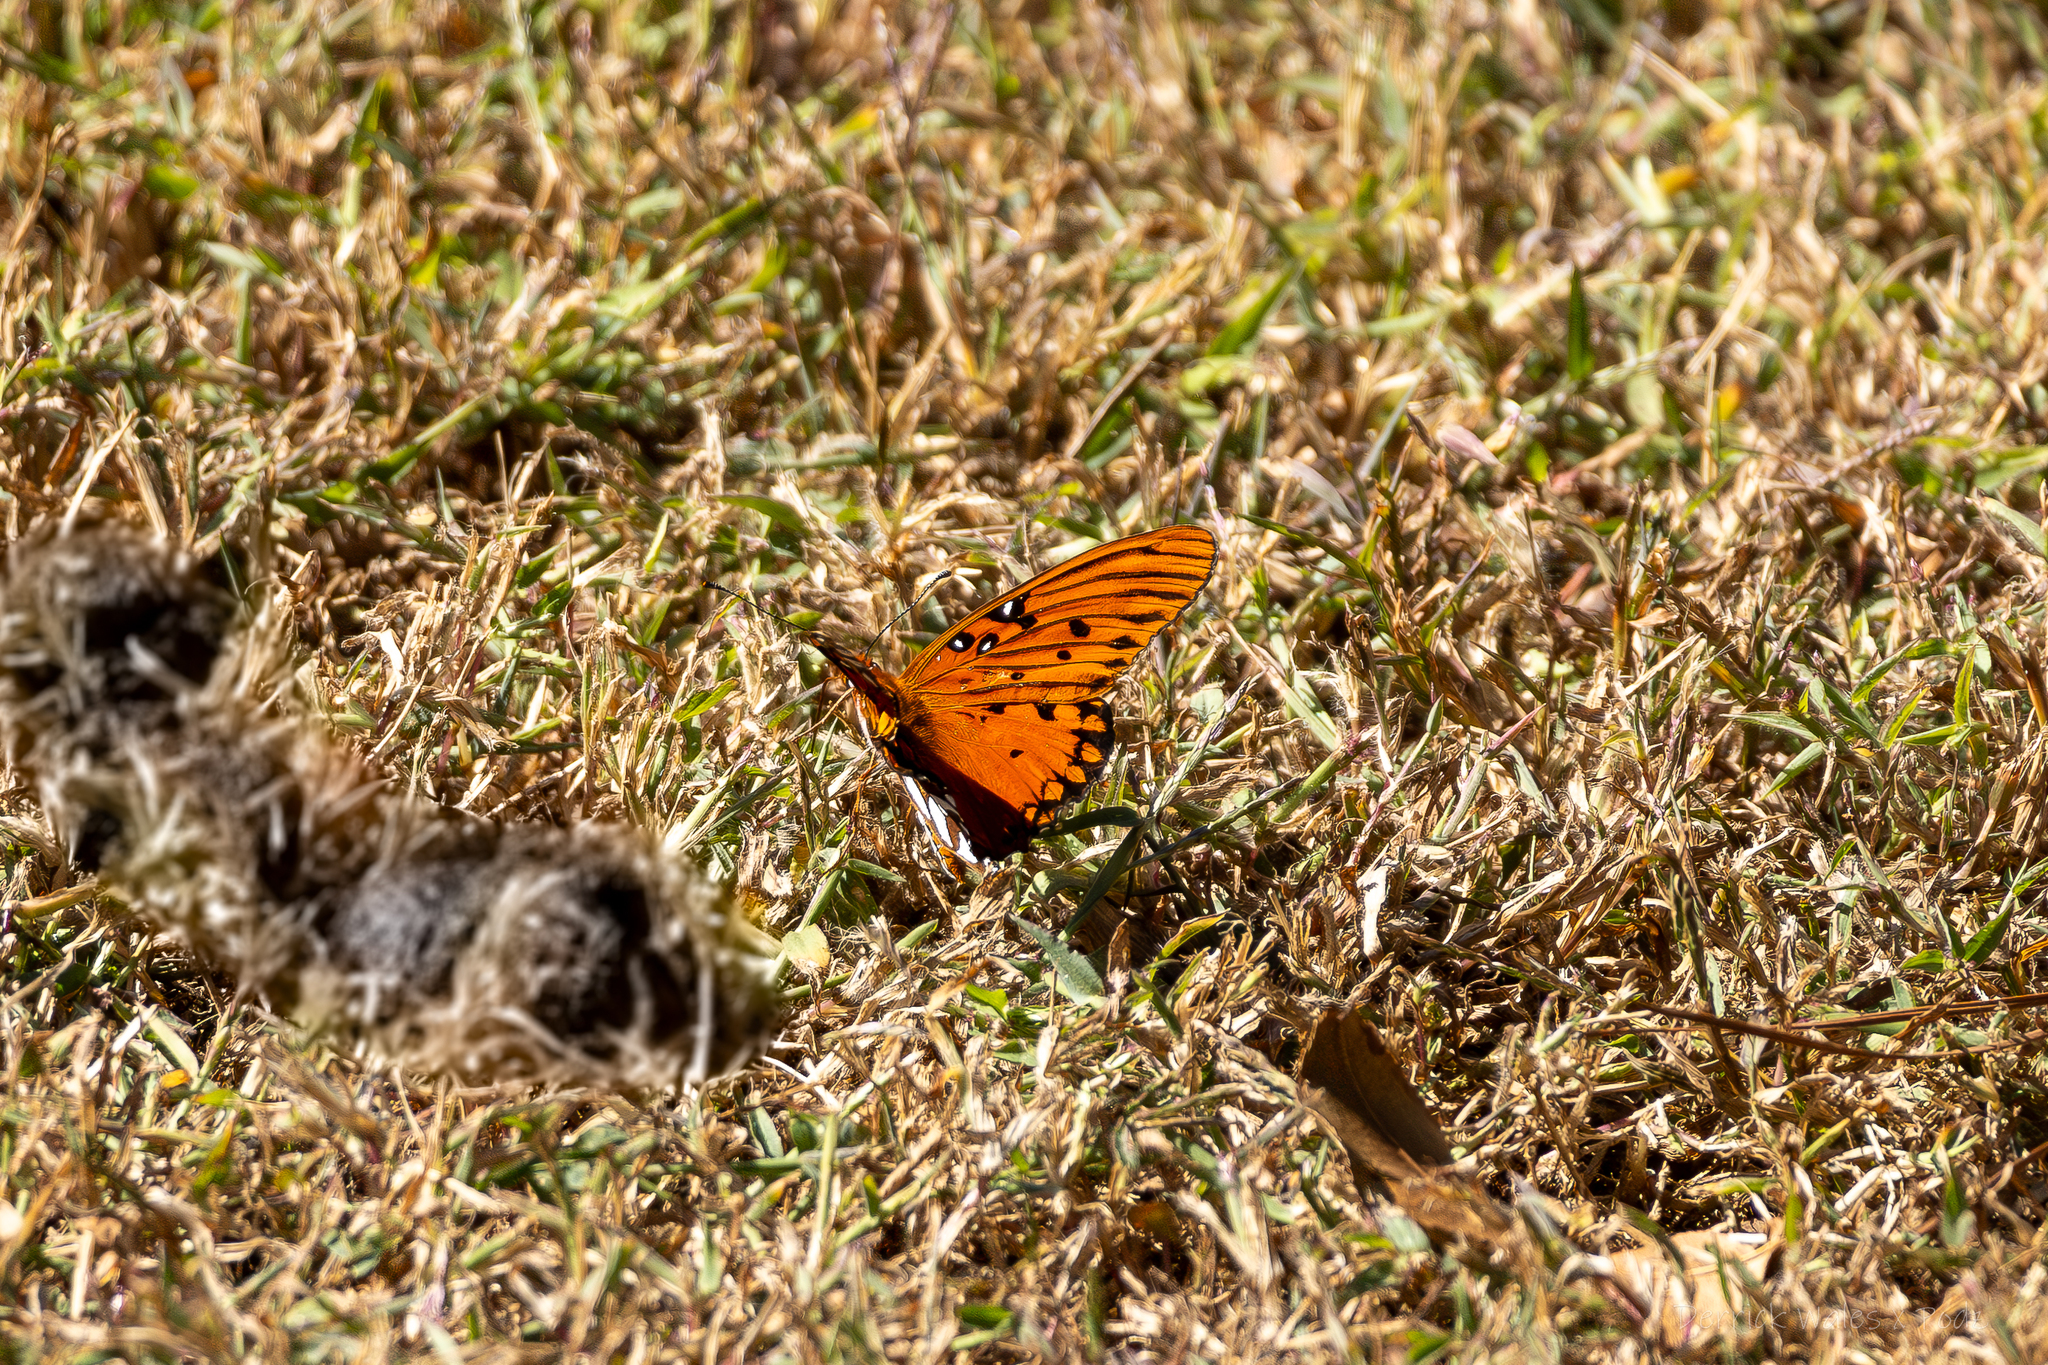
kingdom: Animalia
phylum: Arthropoda
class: Insecta
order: Lepidoptera
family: Nymphalidae
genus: Dione
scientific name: Dione vanillae
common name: Gulf fritillary
